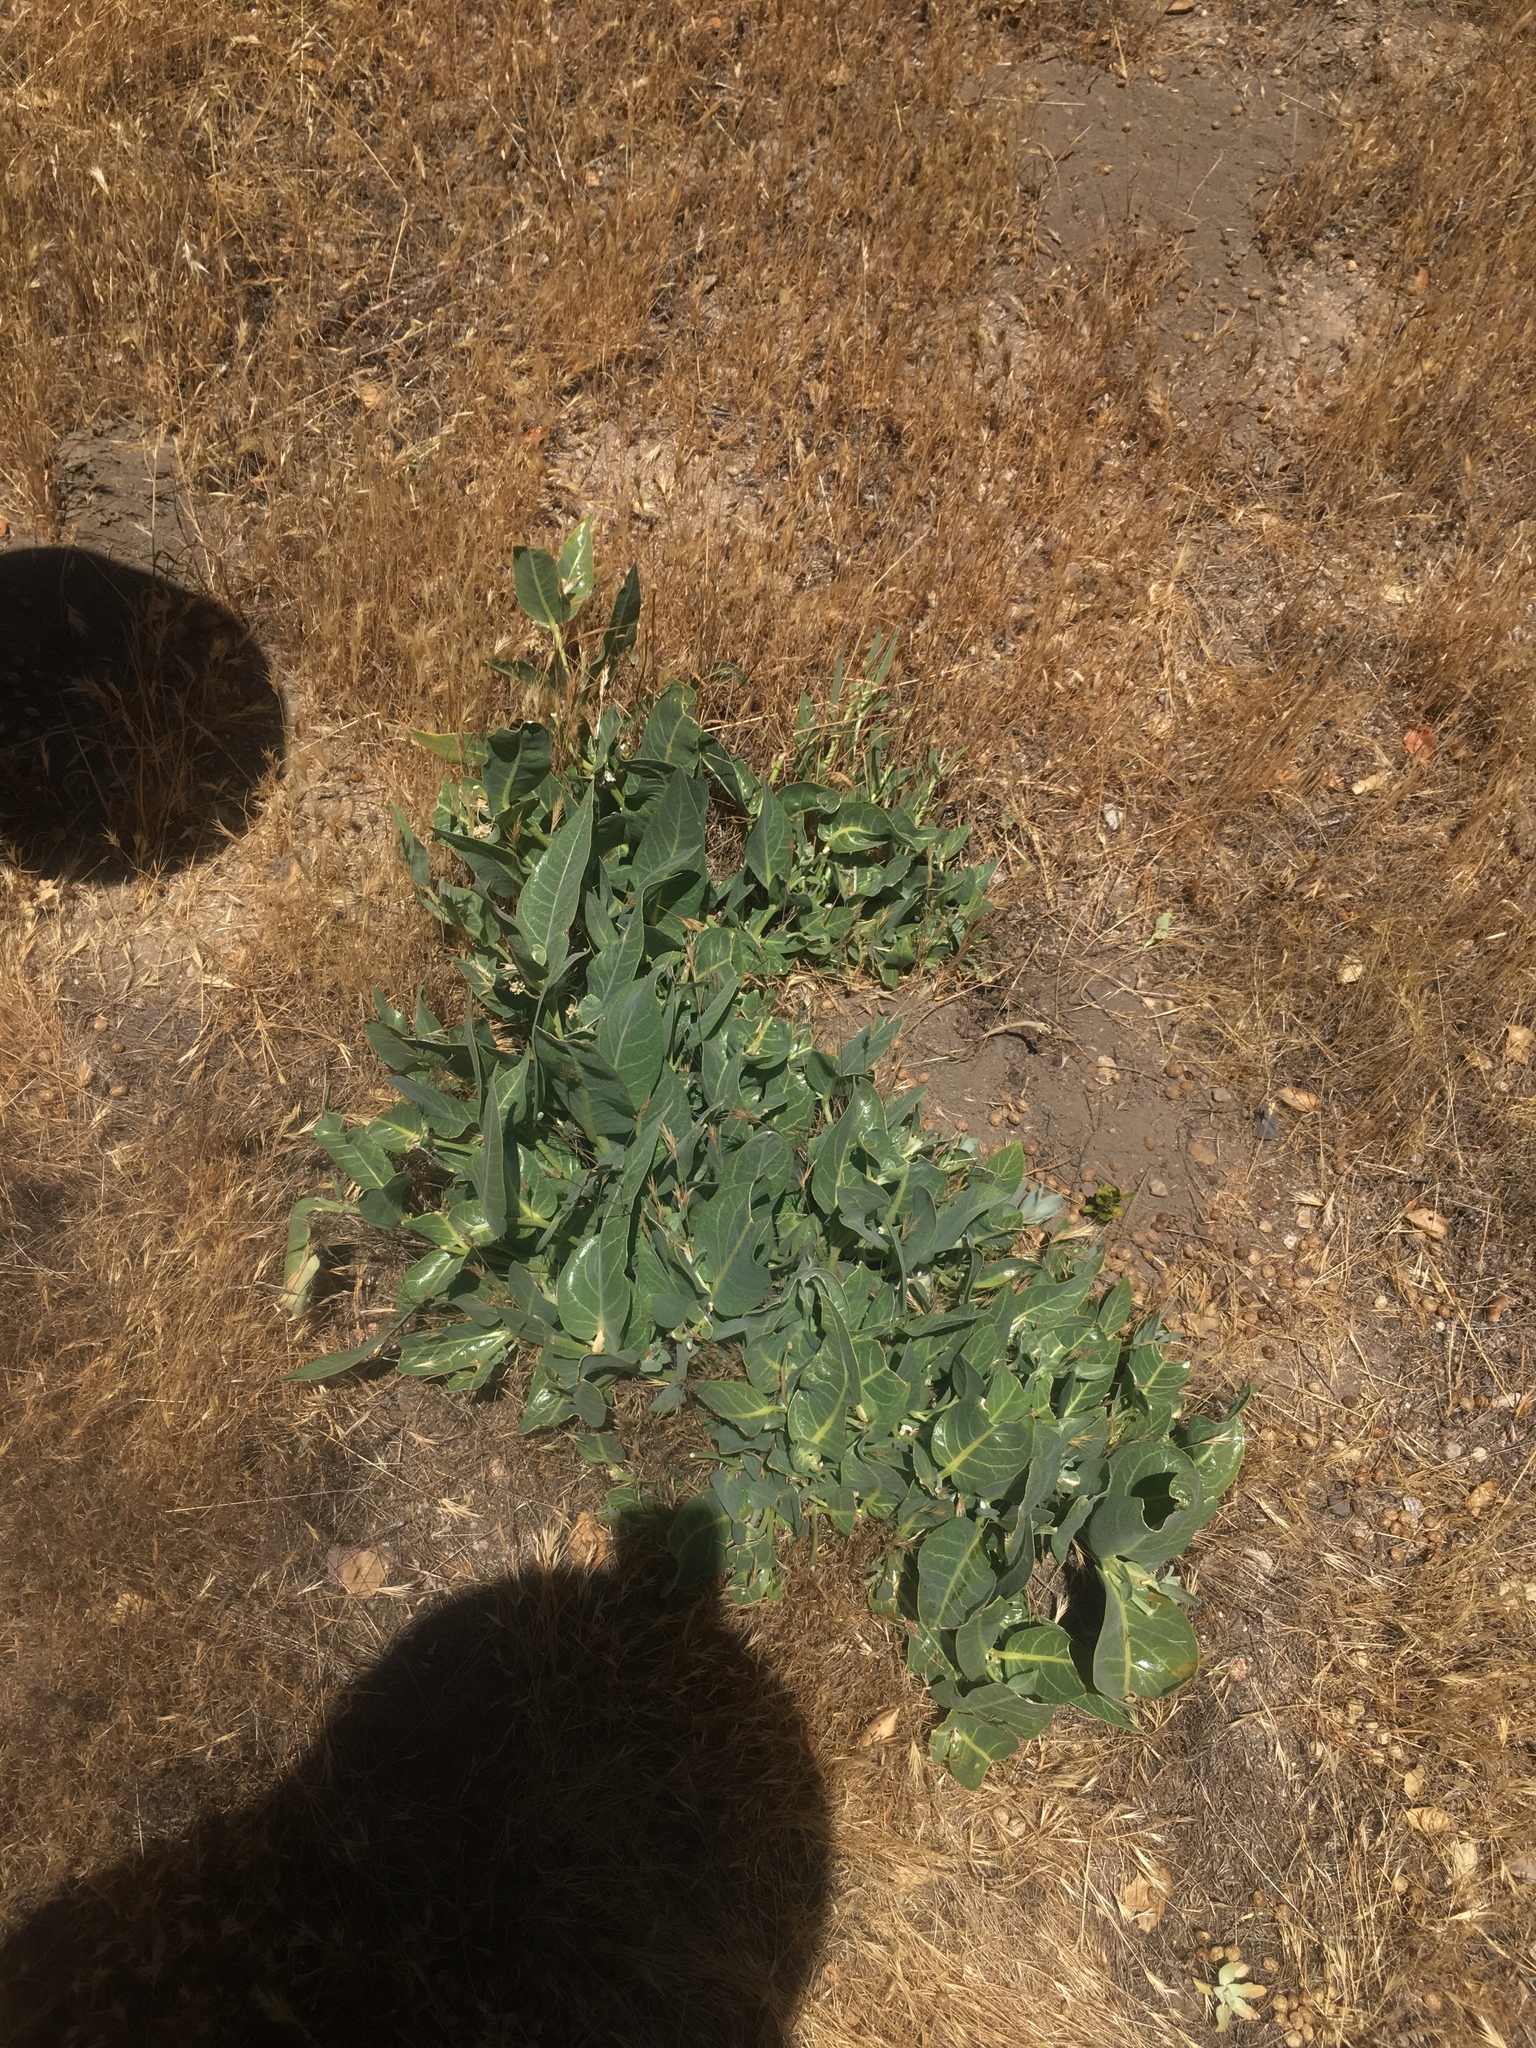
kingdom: Plantae
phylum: Tracheophyta
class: Magnoliopsida
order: Gentianales
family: Apocynaceae
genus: Asclepias
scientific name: Asclepias vestita
